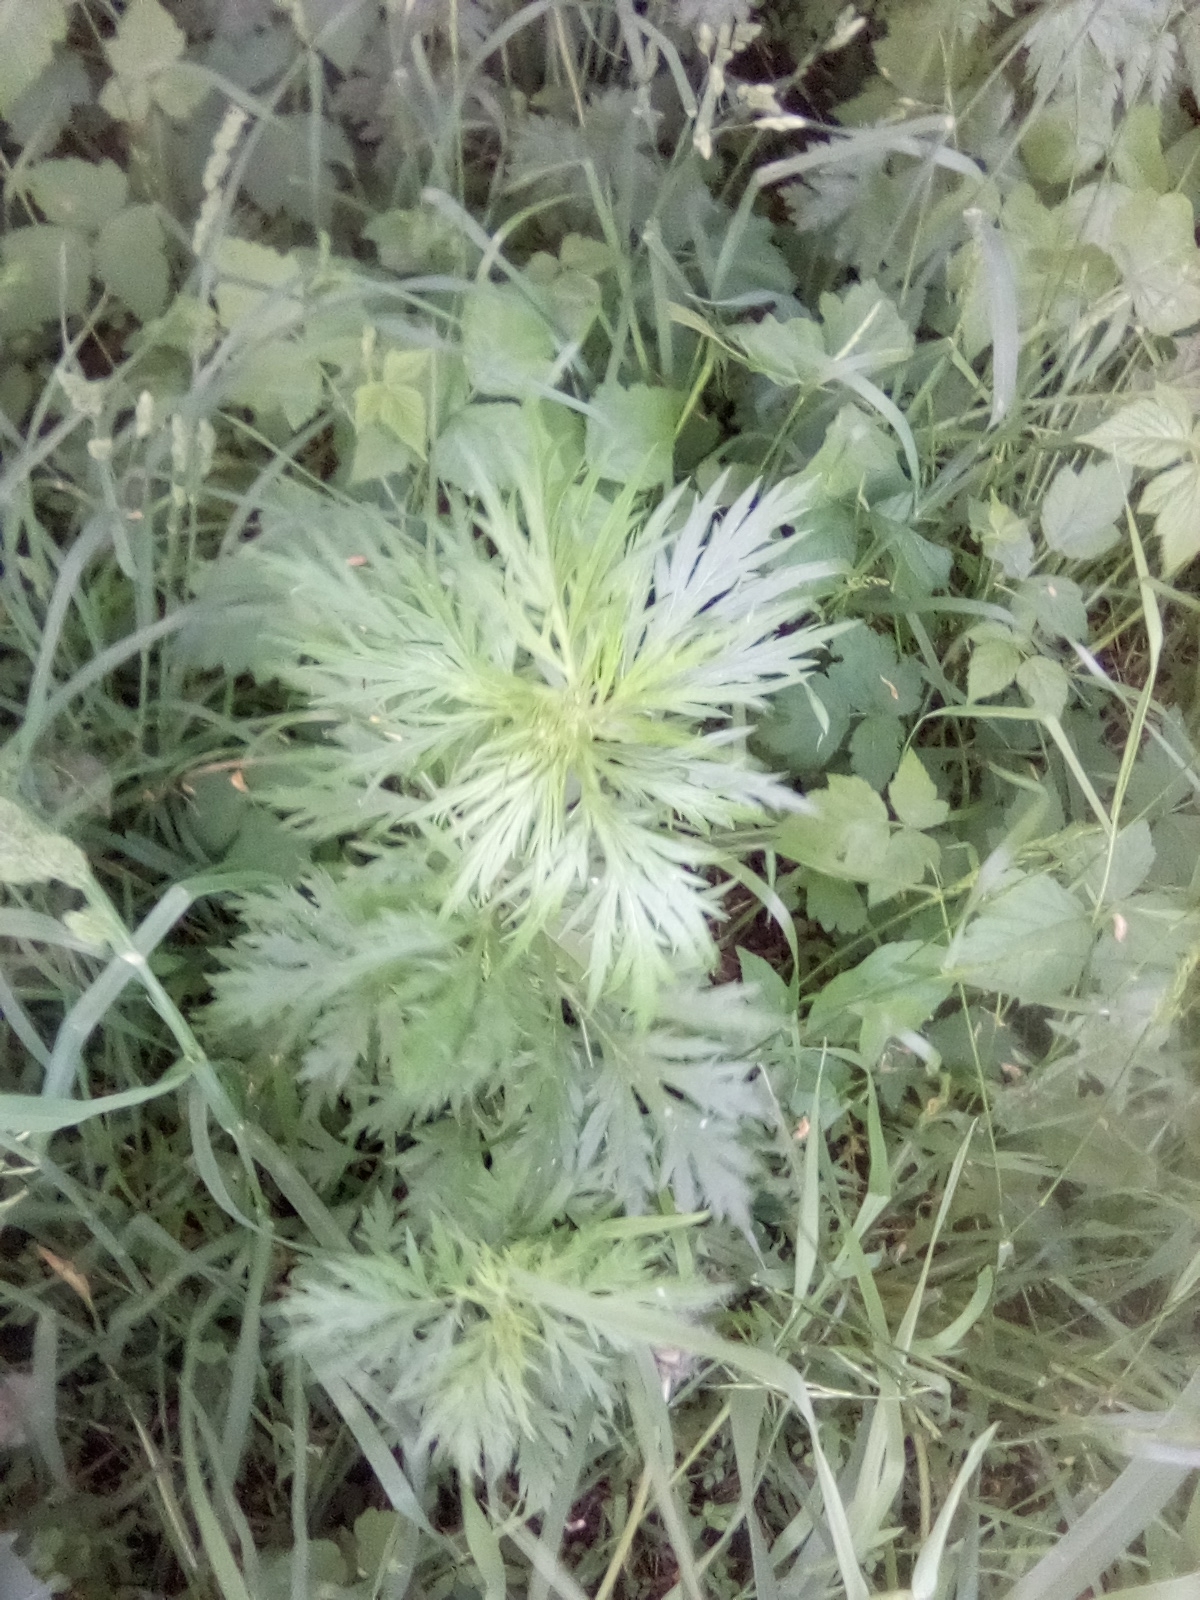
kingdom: Plantae
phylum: Tracheophyta
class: Magnoliopsida
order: Asterales
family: Asteraceae
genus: Artemisia
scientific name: Artemisia vulgaris
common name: Mugwort
